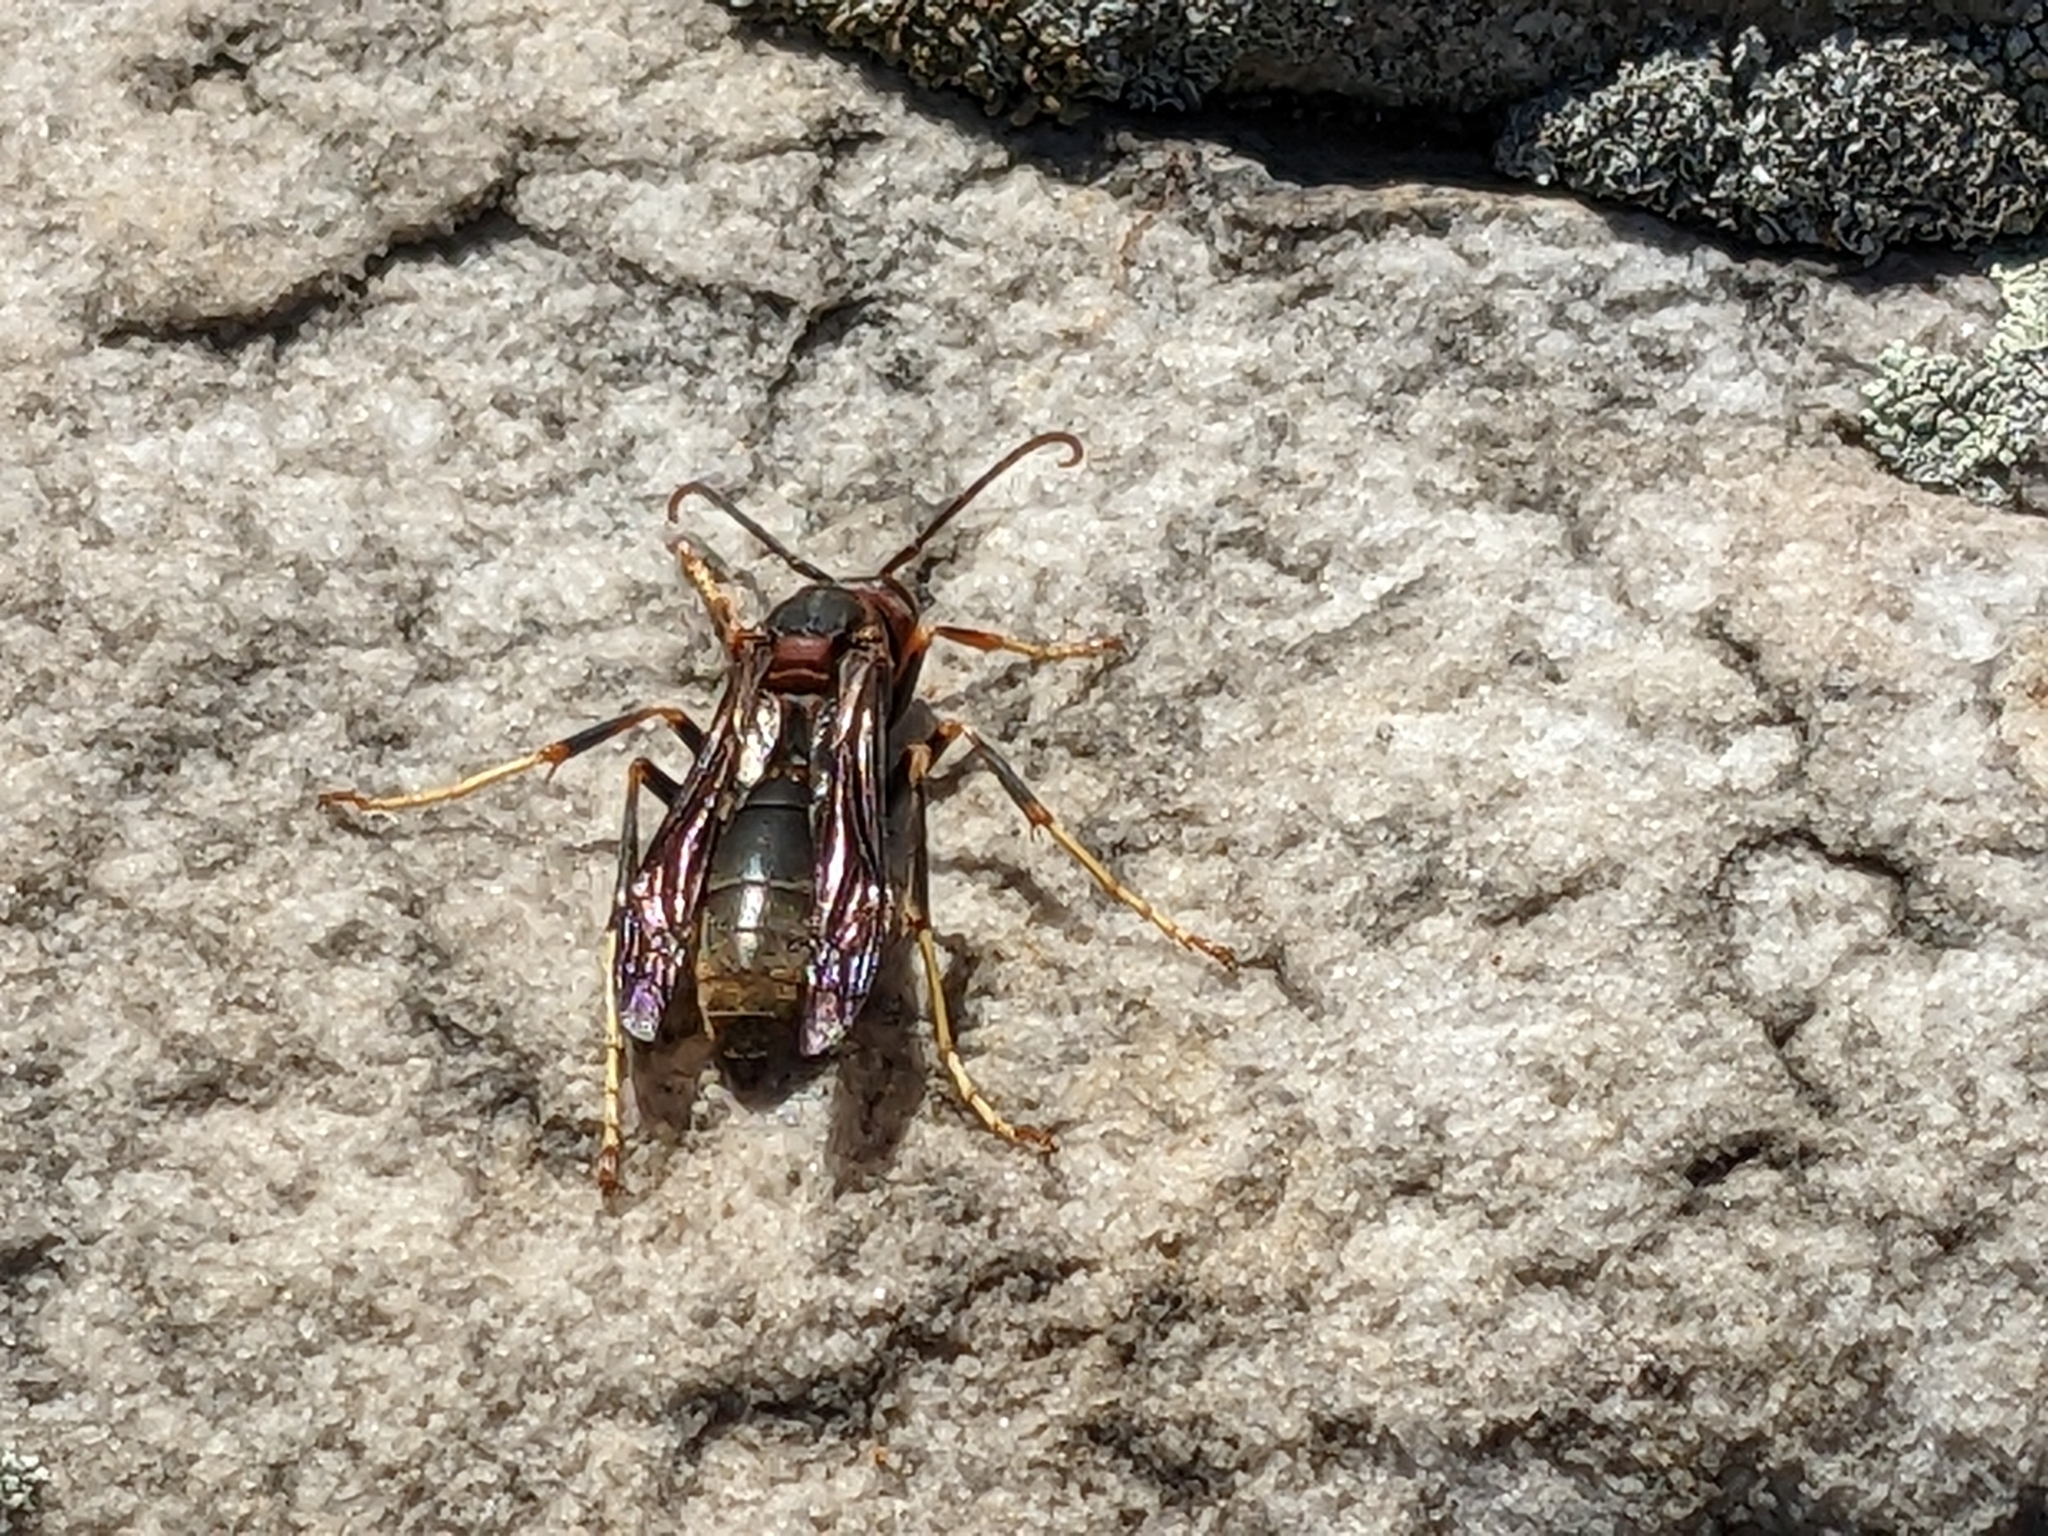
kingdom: Animalia
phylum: Arthropoda
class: Insecta
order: Hymenoptera
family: Eumenidae
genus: Polistes
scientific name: Polistes parametricus
